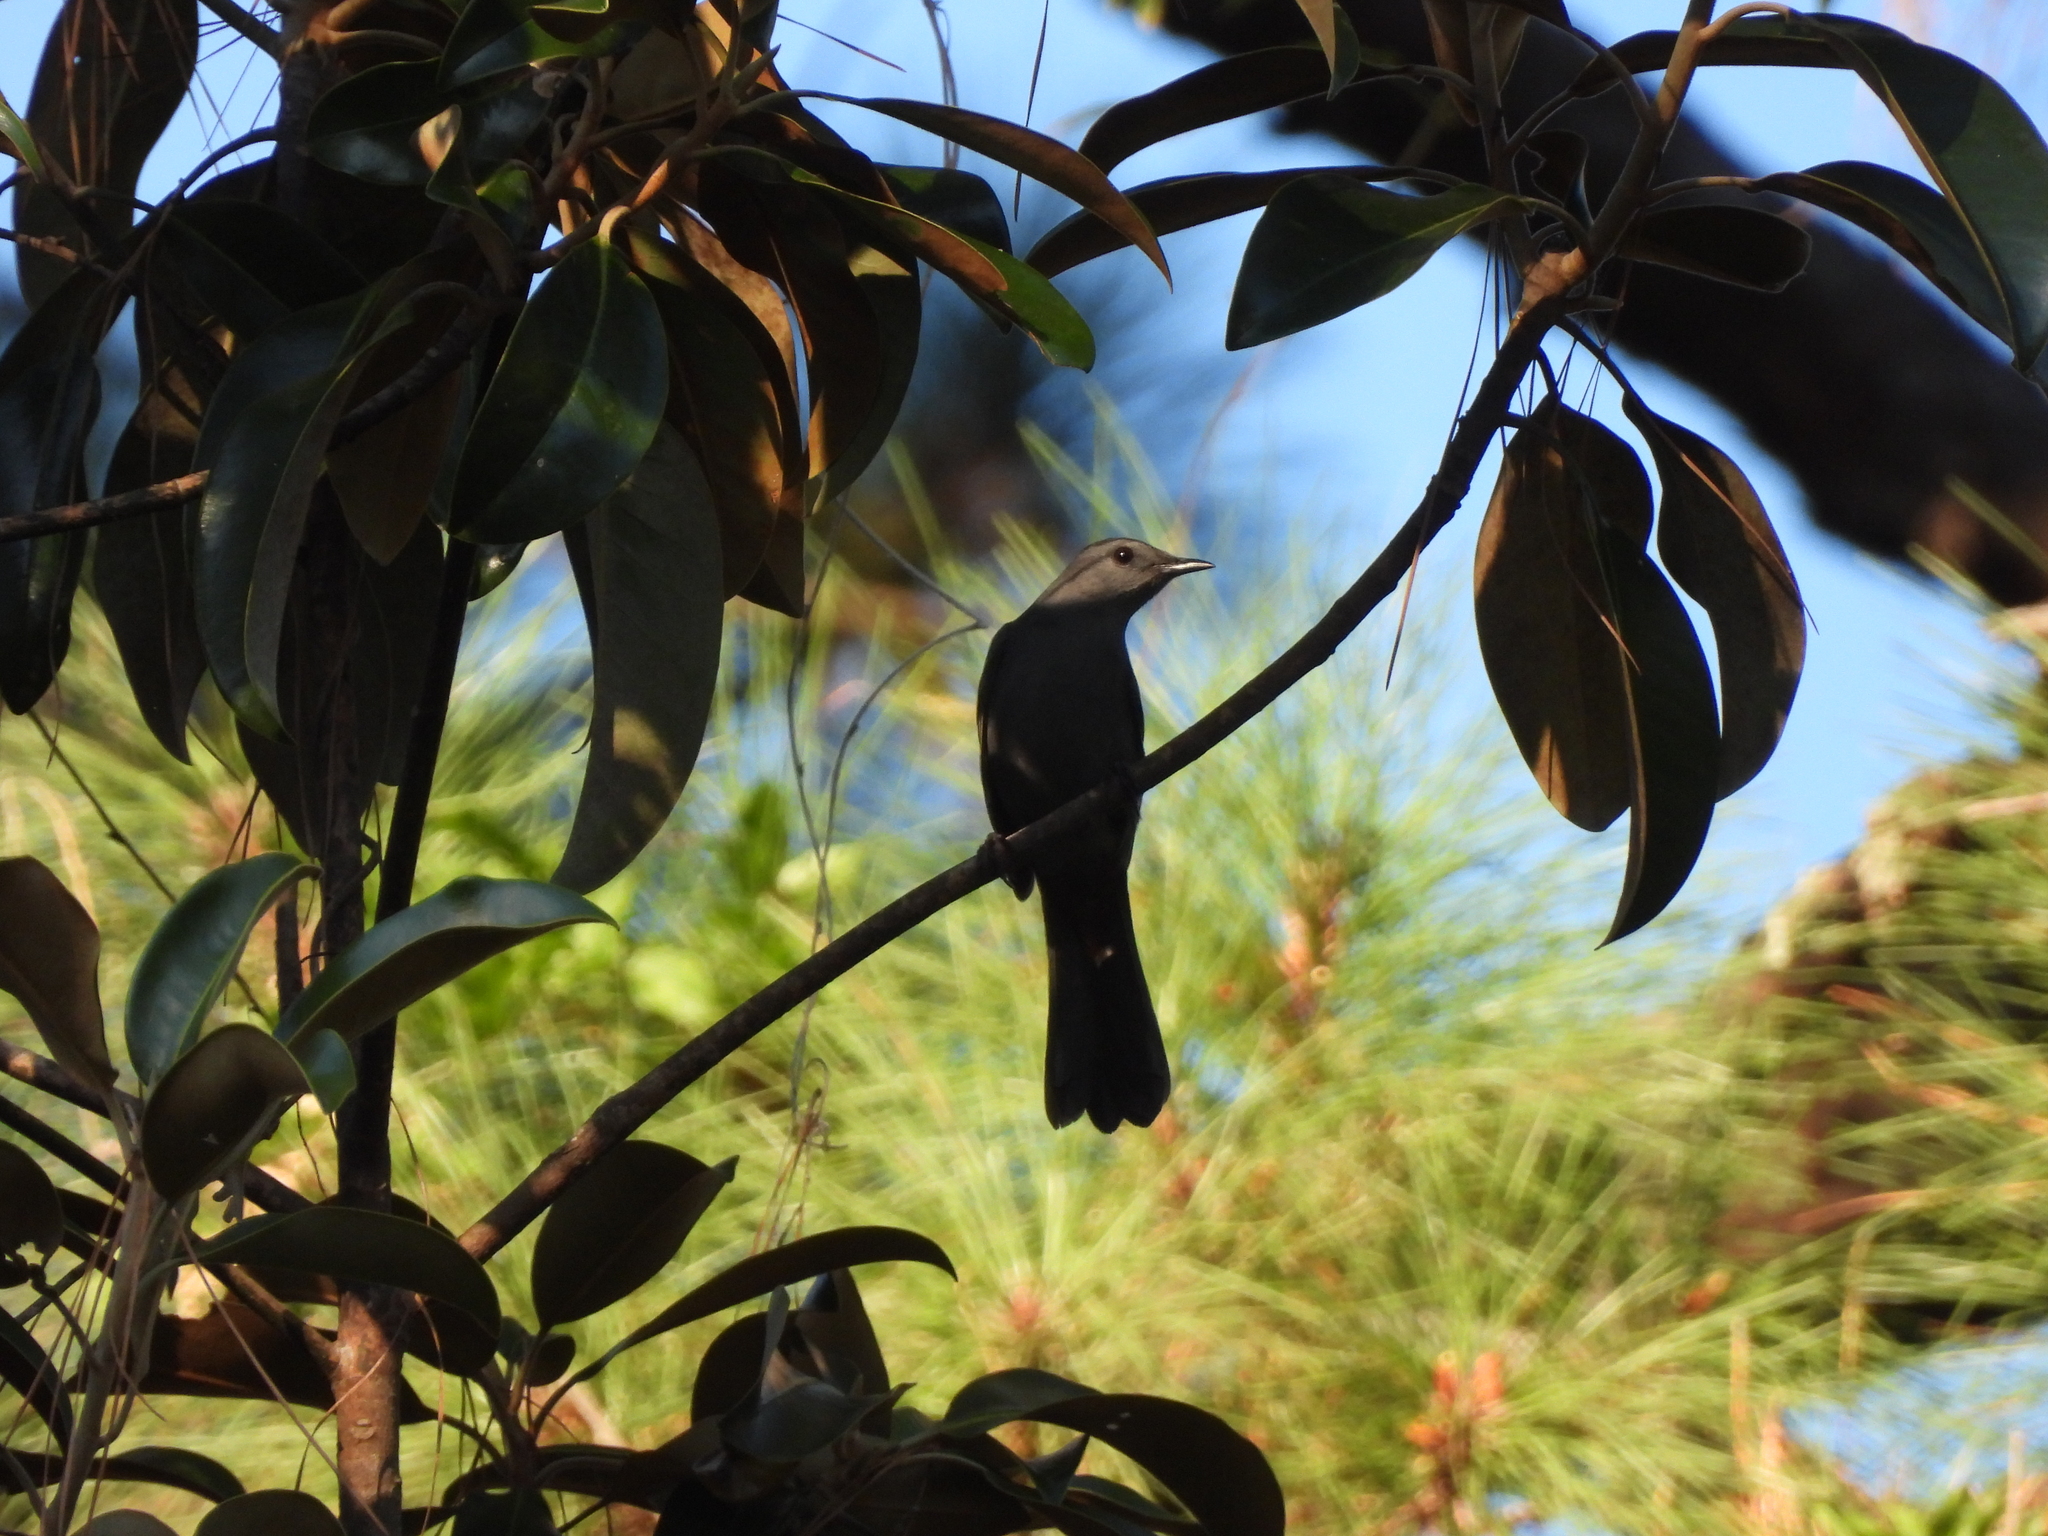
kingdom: Animalia
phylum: Chordata
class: Aves
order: Passeriformes
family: Mimidae
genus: Dumetella
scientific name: Dumetella carolinensis
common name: Gray catbird
